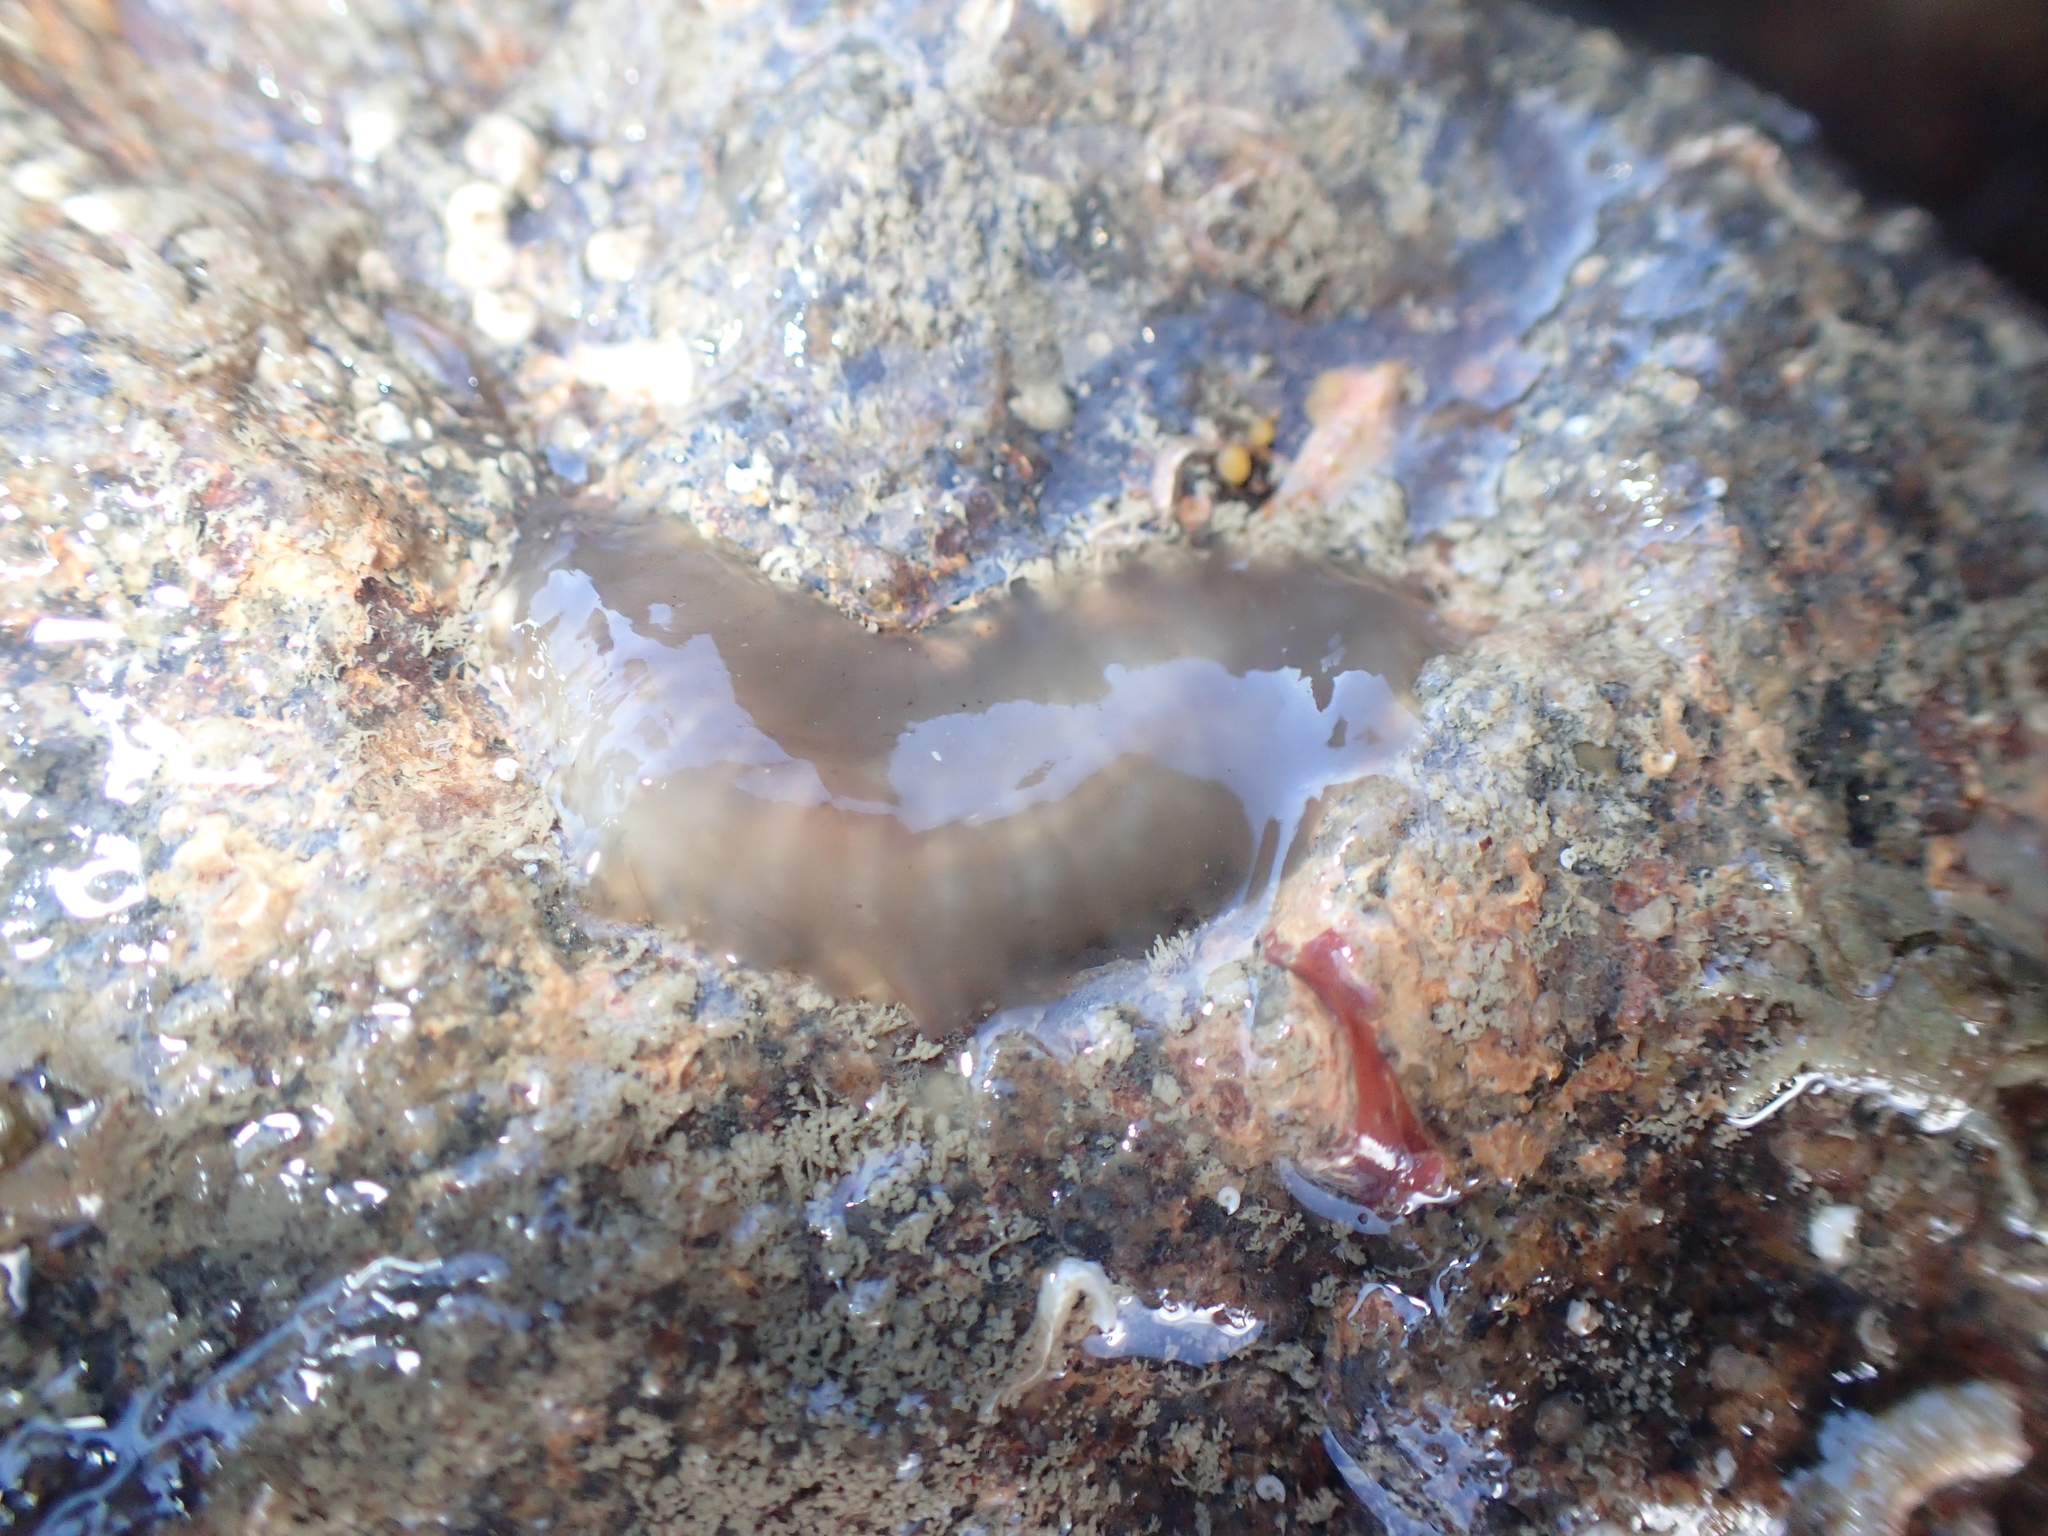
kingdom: Animalia
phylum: Annelida
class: Polychaeta
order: Phyllodocida
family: Polynoidae
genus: Alentia
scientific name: Alentia gelatinosa
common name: Gelatinous scale worm
